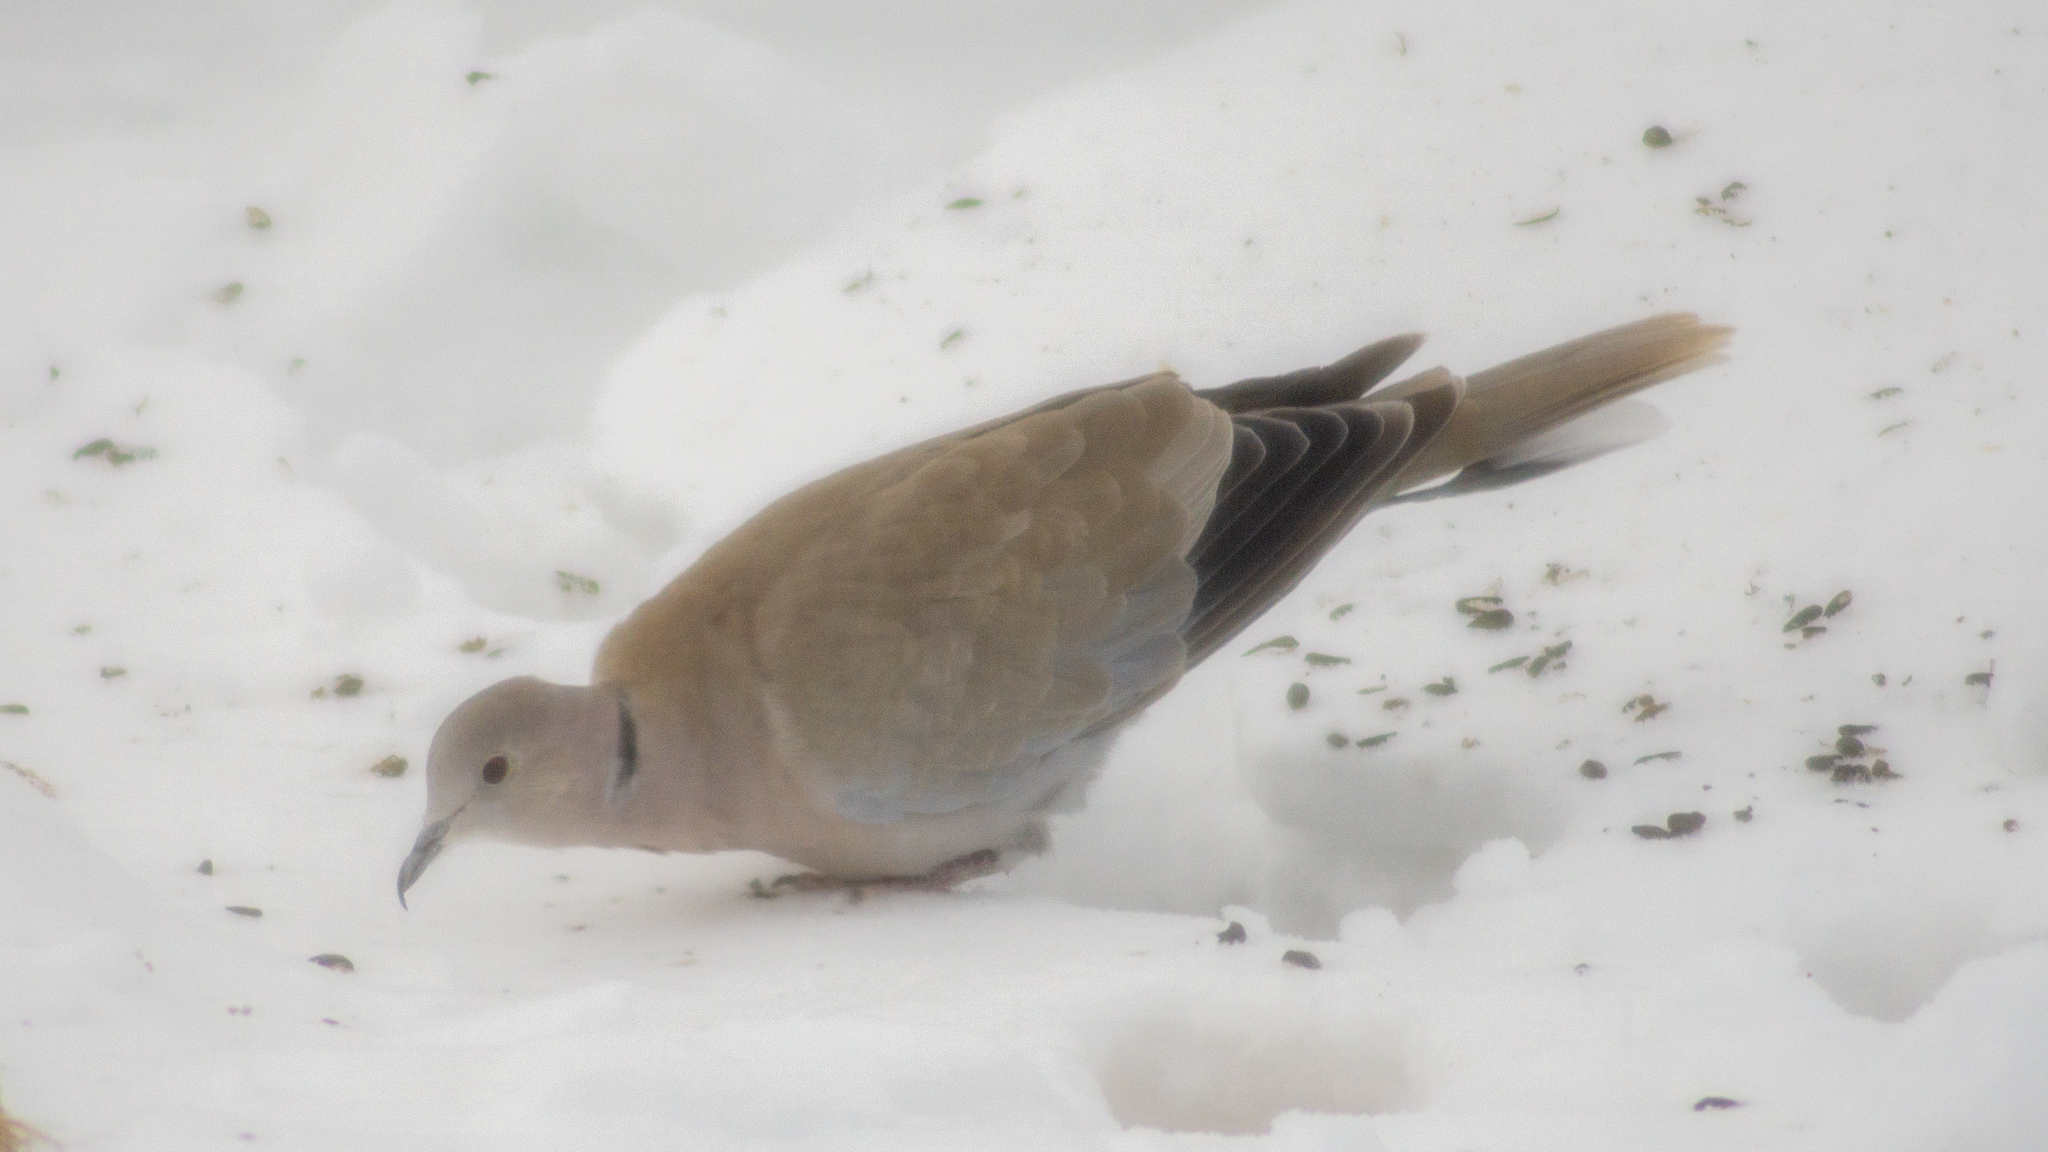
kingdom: Animalia
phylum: Chordata
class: Aves
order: Columbiformes
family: Columbidae
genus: Streptopelia
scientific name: Streptopelia decaocto
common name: Eurasian collared dove
